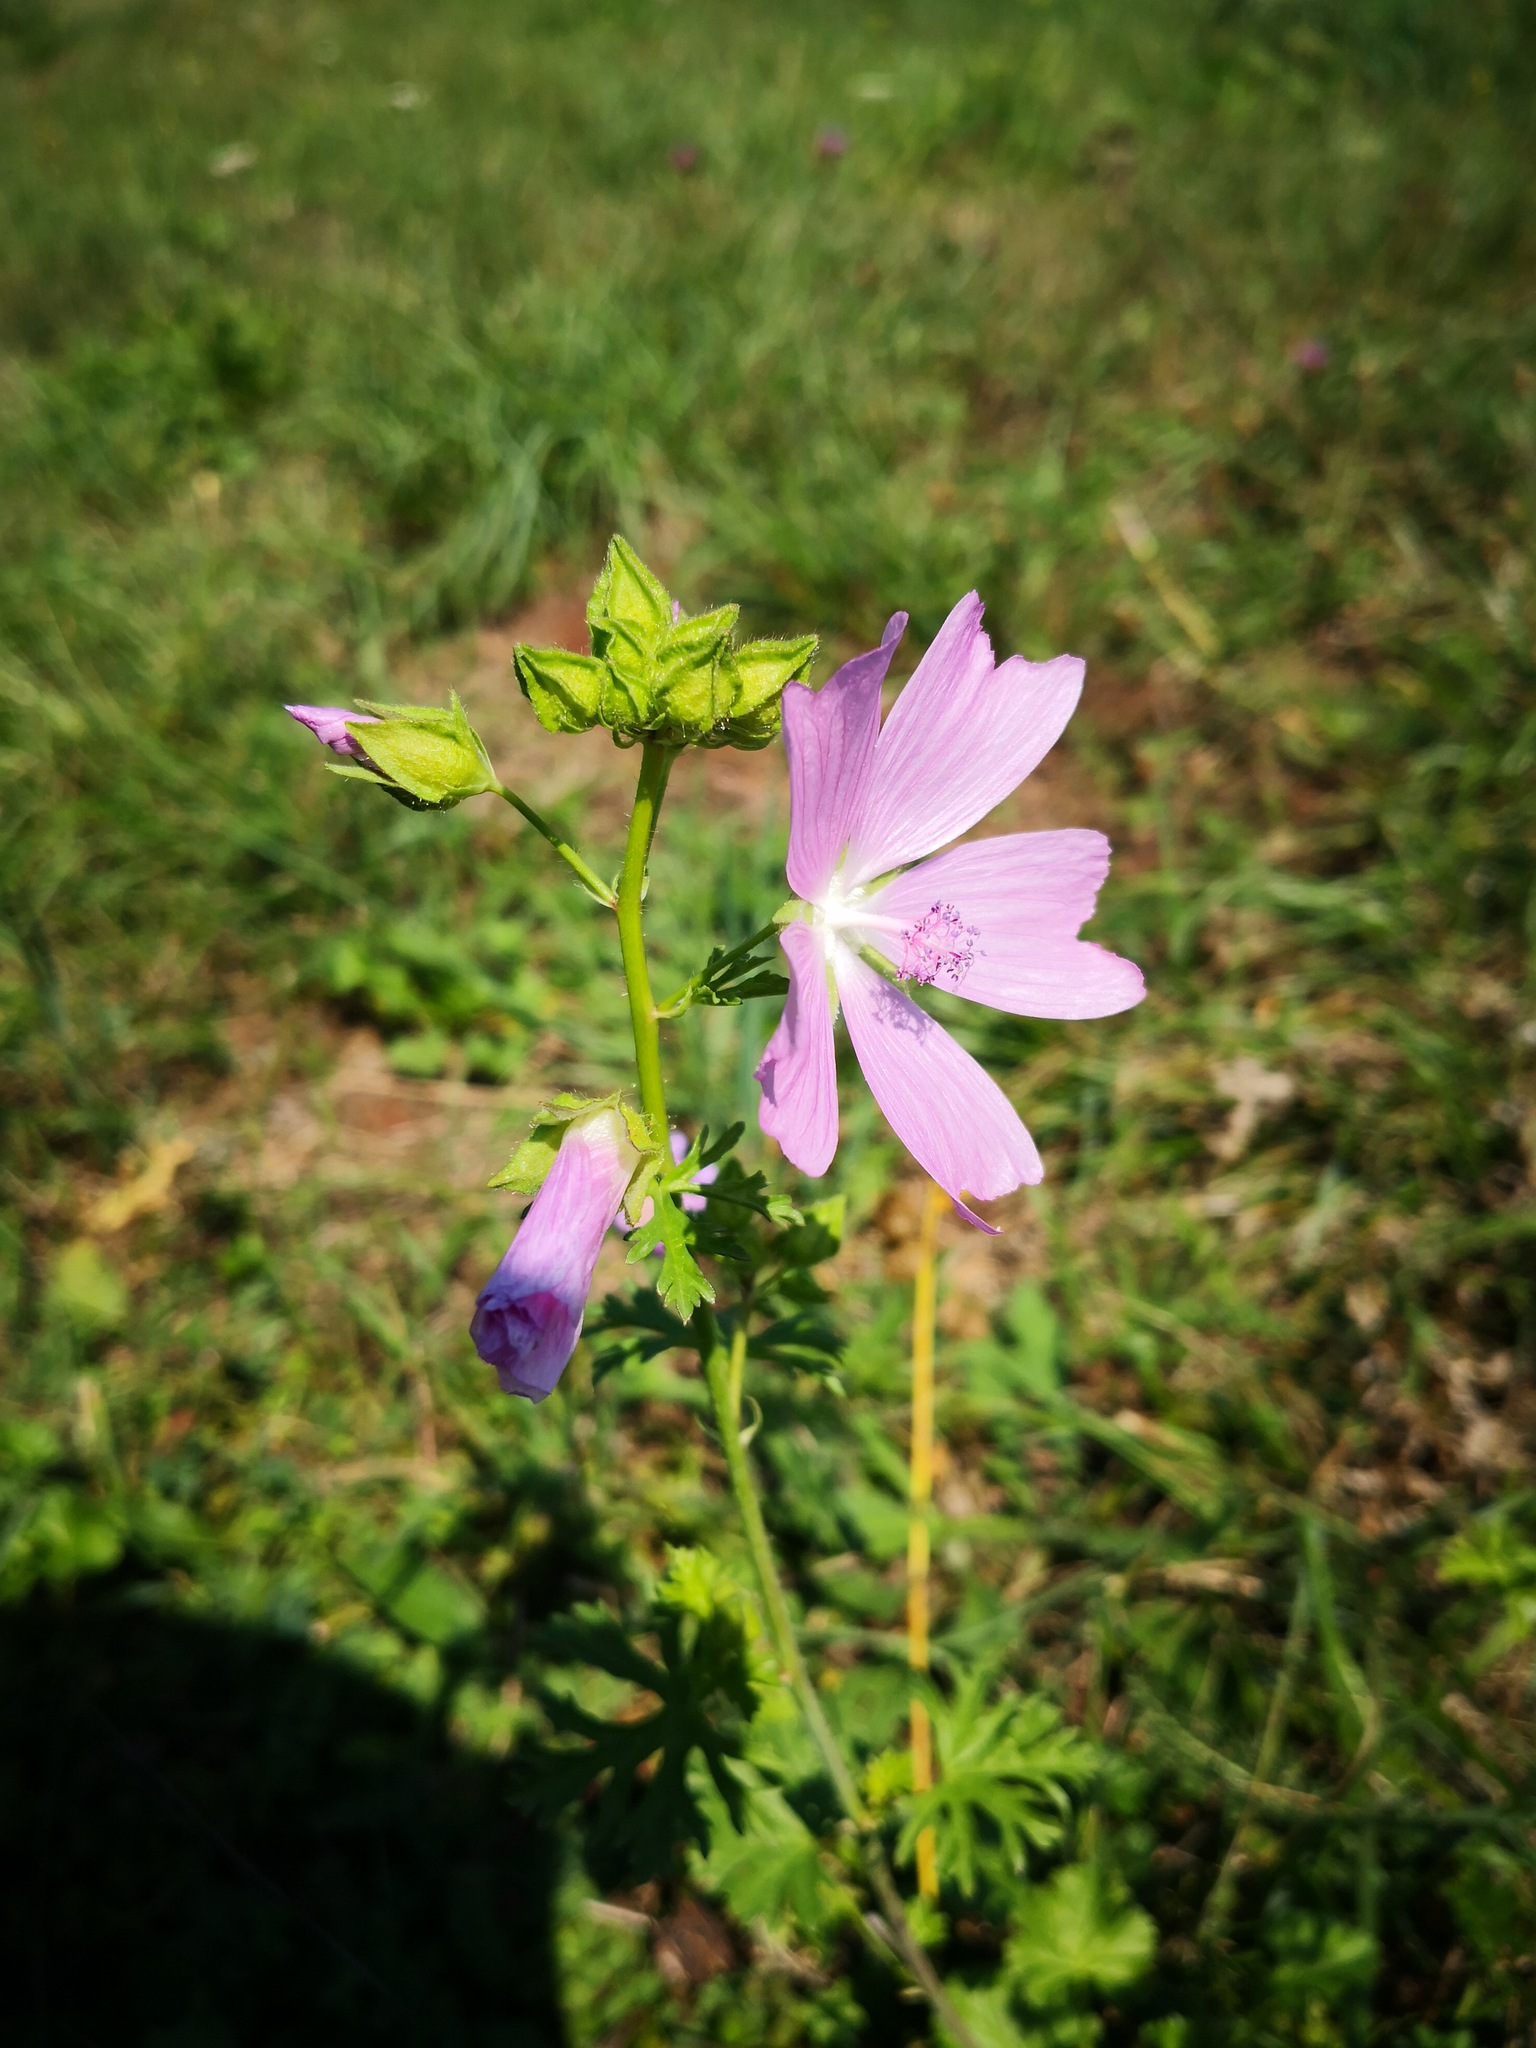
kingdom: Plantae
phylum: Tracheophyta
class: Magnoliopsida
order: Malvales
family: Malvaceae
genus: Malva
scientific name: Malva moschata
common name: Musk mallow
